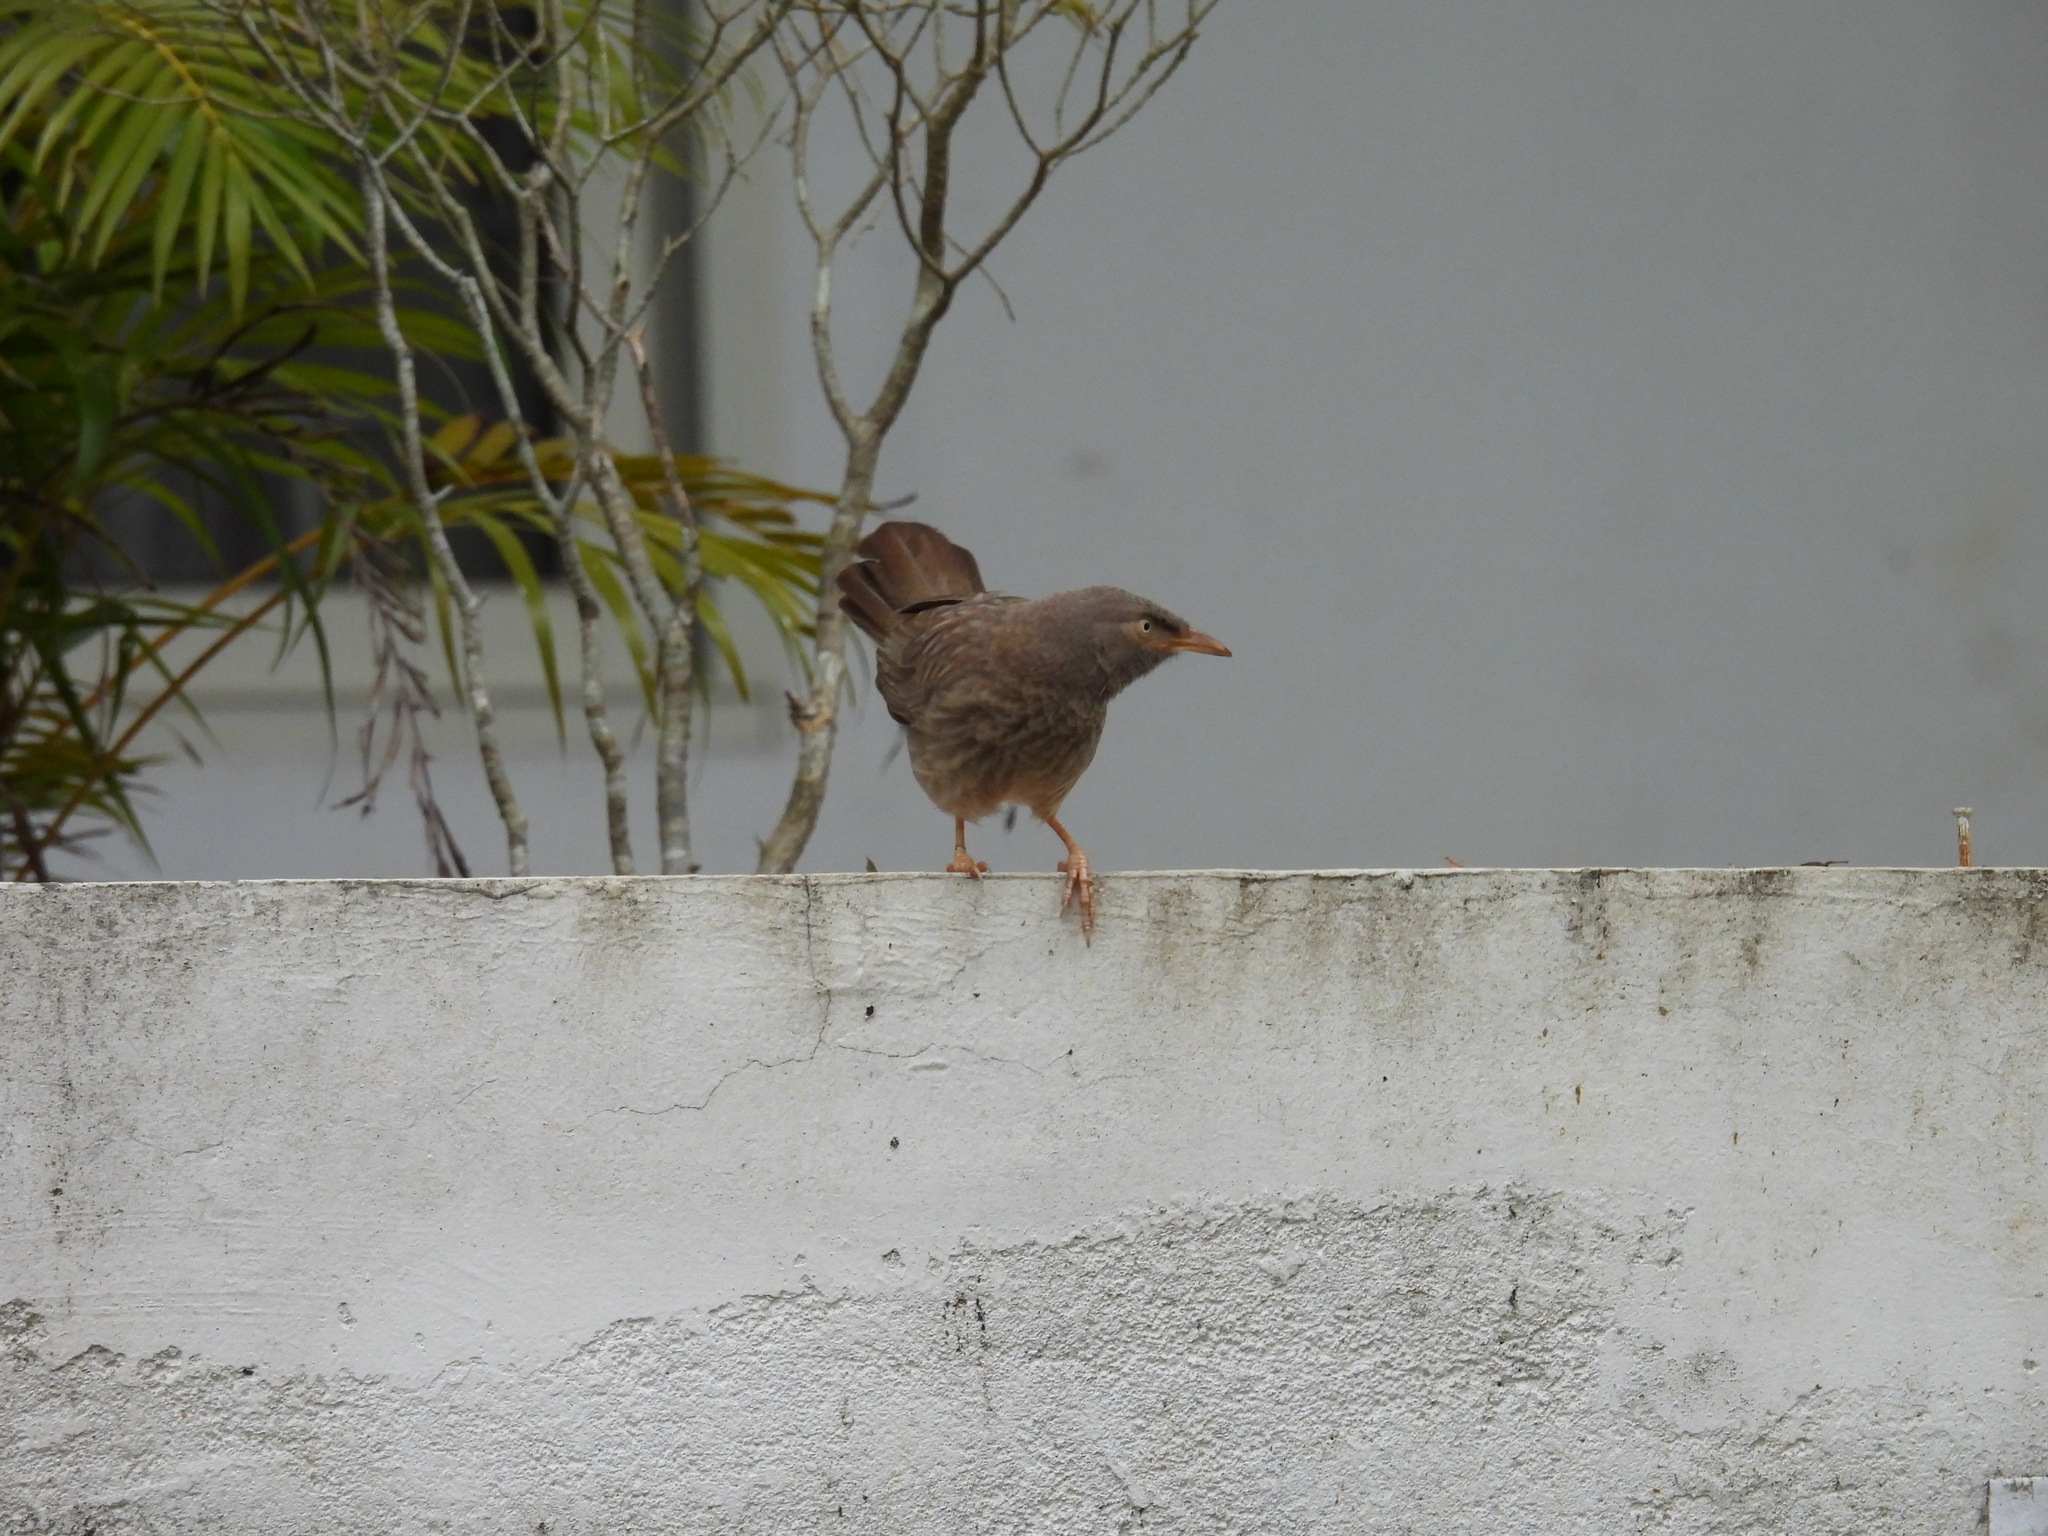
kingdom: Animalia
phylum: Chordata
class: Aves
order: Passeriformes
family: Leiothrichidae
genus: Turdoides
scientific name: Turdoides striata
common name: Jungle babbler
